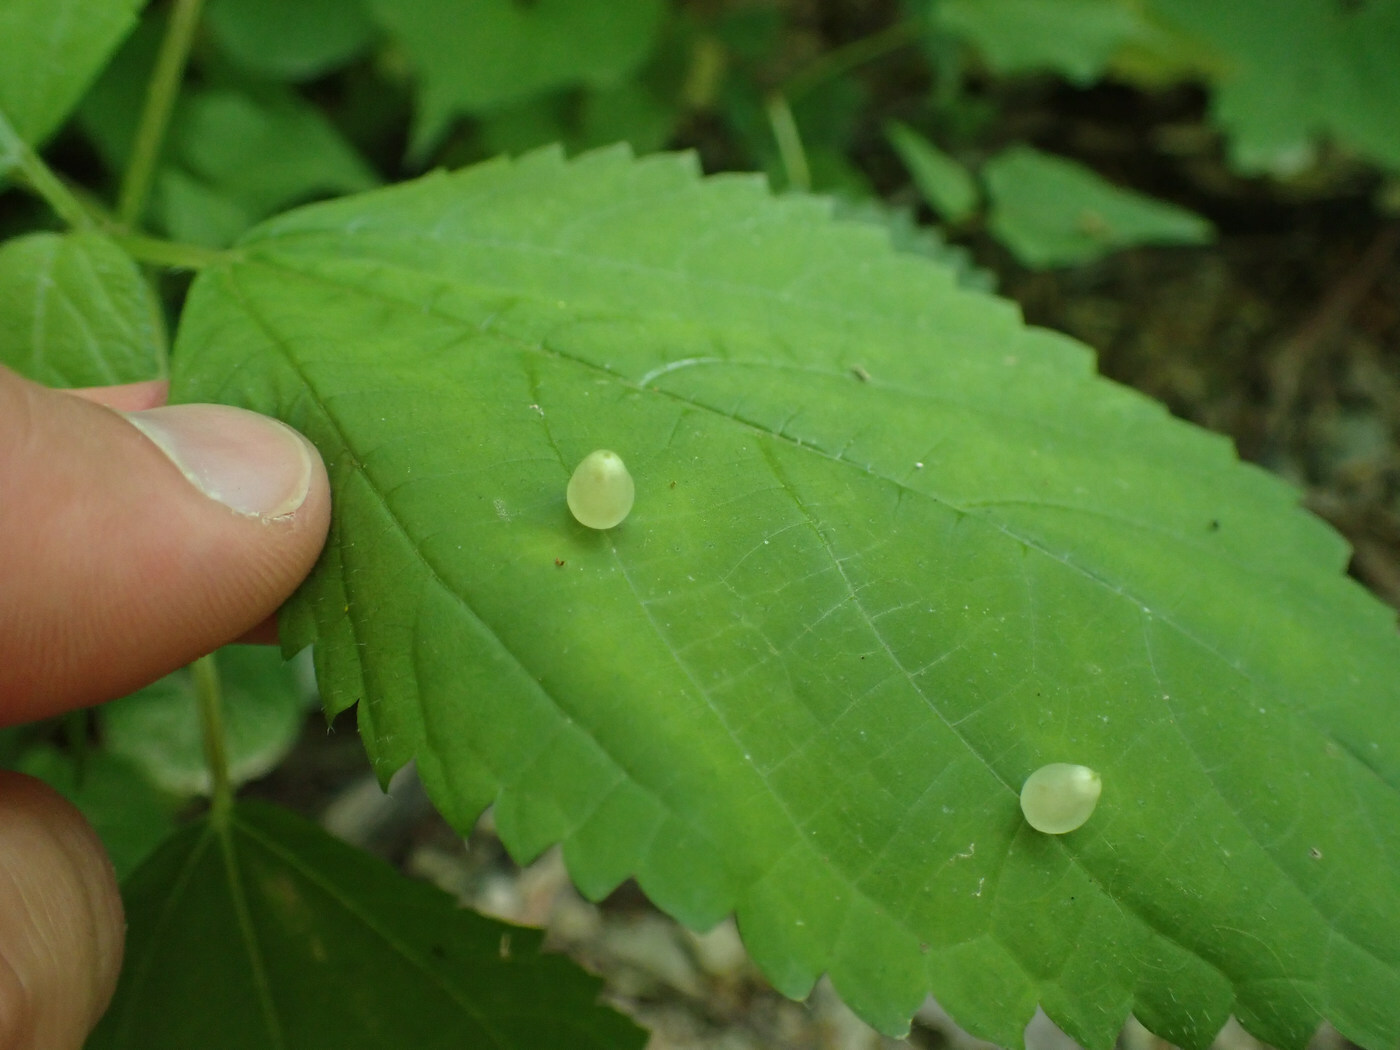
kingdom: Animalia
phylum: Arthropoda
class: Insecta
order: Diptera
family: Cecidomyiidae
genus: Dasineura
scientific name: Dasineura investita
